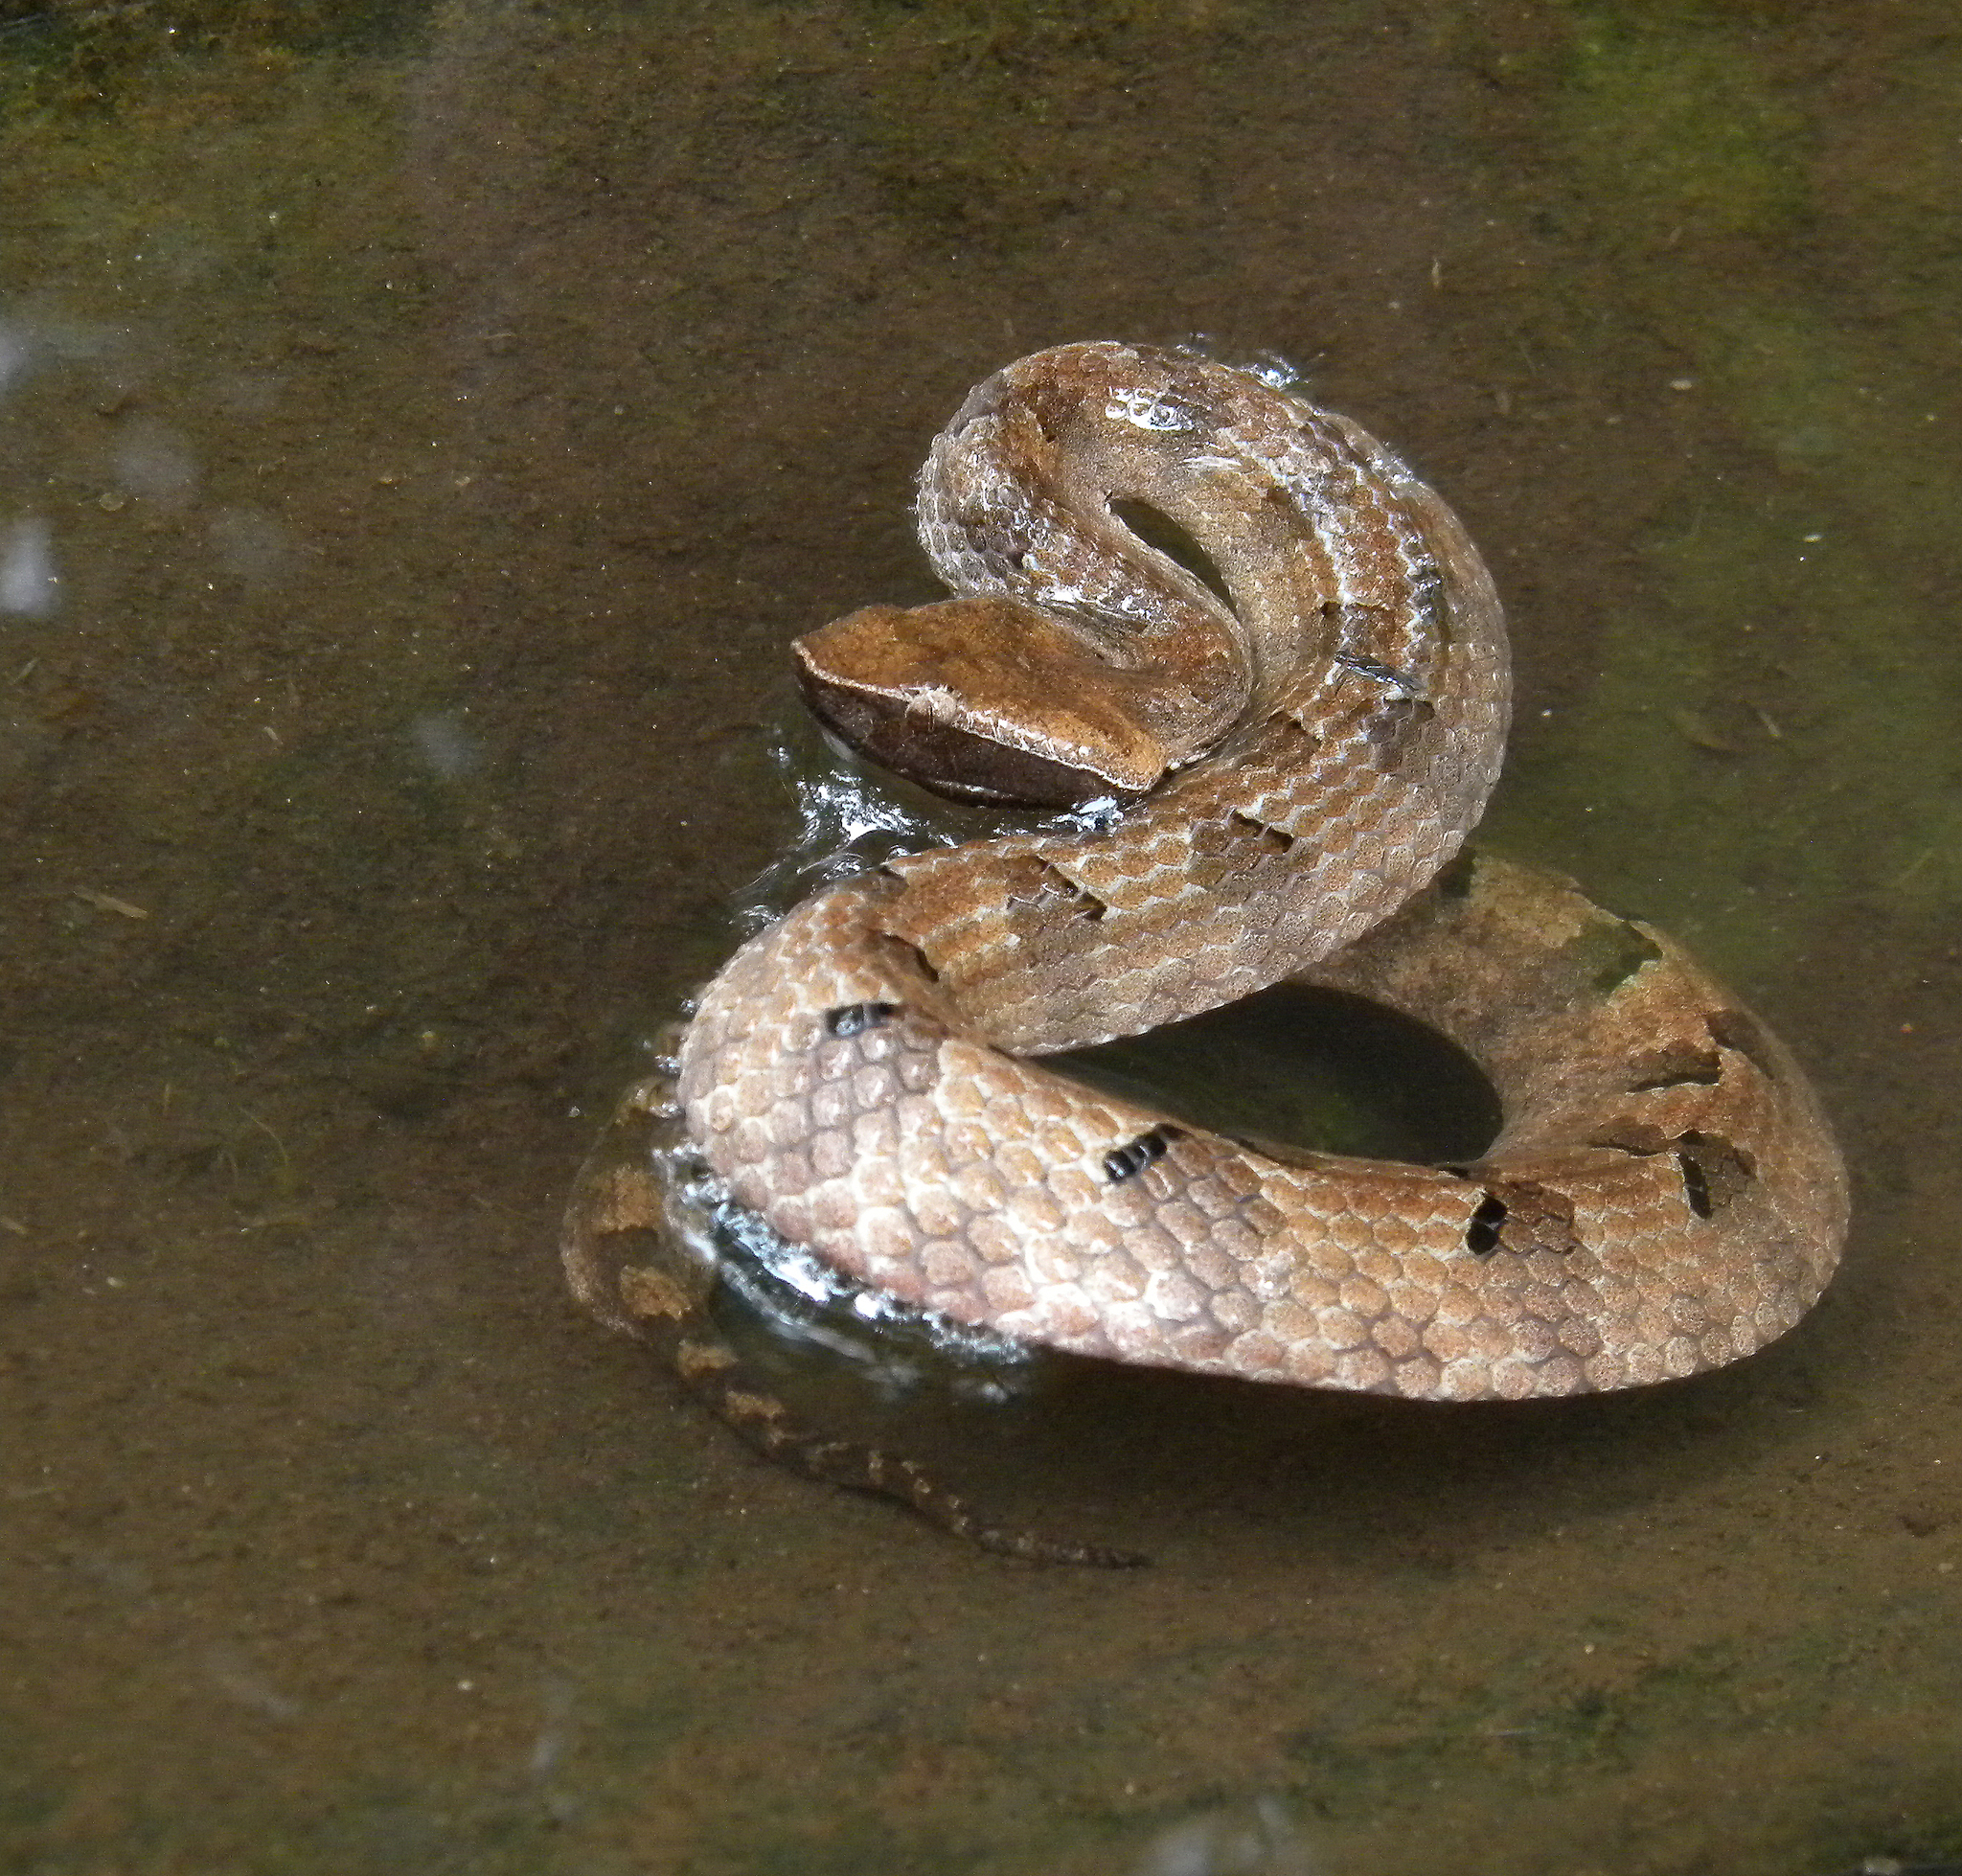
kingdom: Animalia
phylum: Chordata
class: Squamata
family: Viperidae
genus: Hypnale
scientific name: Hypnale hypnale
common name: Hump-nosed moccasin
